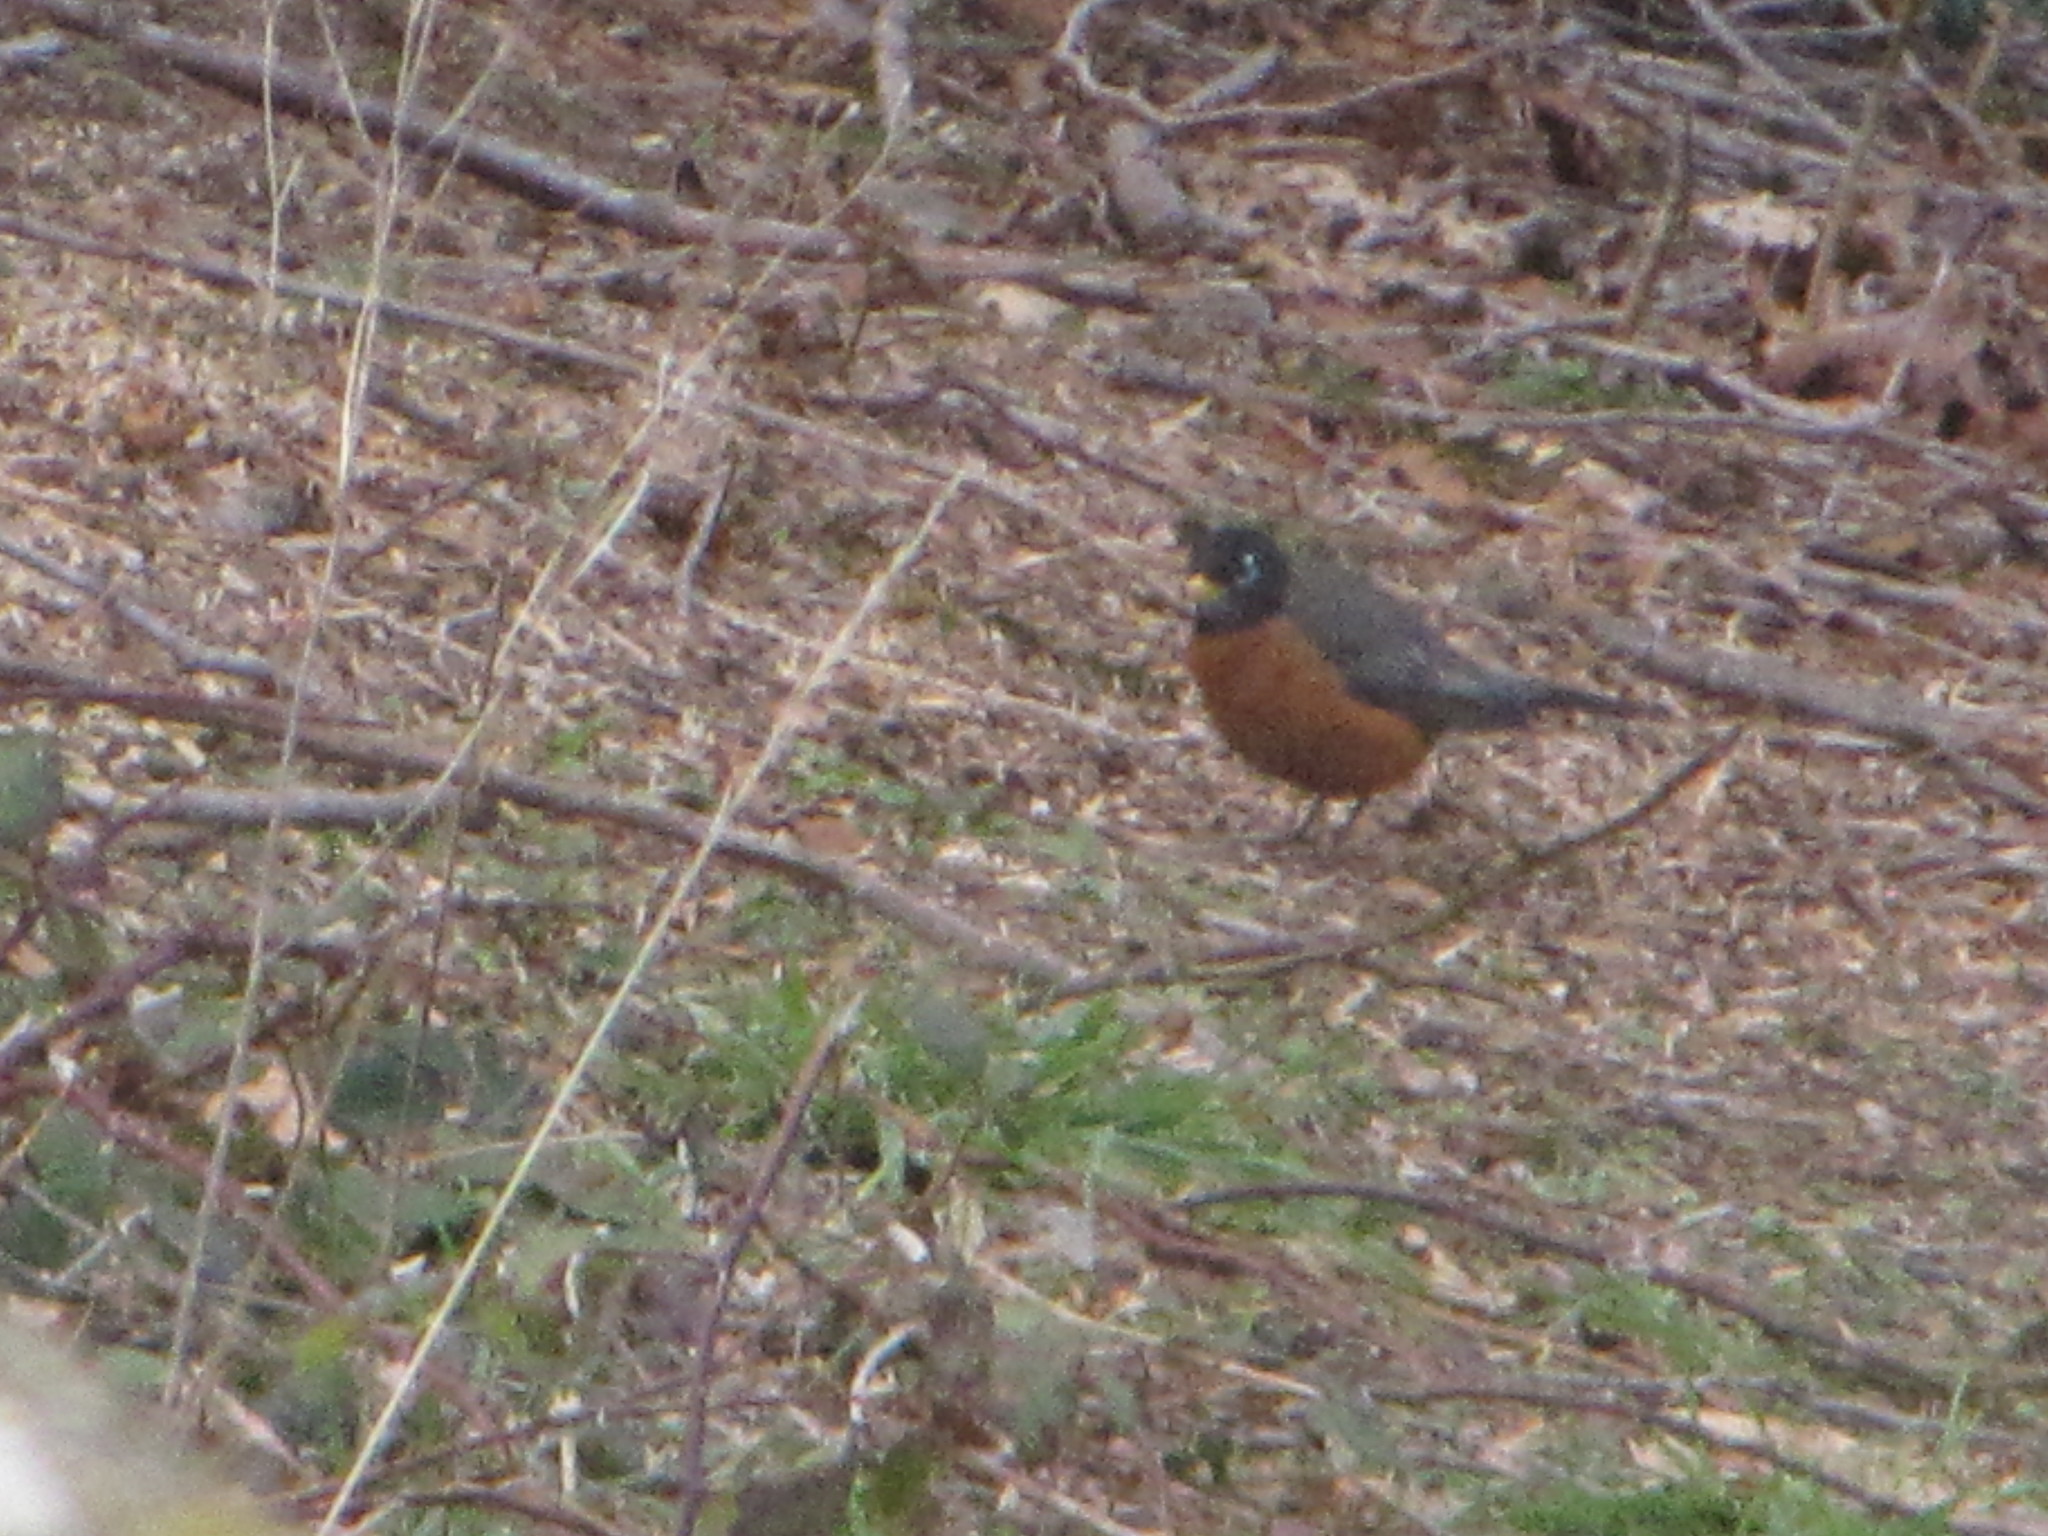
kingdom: Animalia
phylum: Chordata
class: Aves
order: Passeriformes
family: Turdidae
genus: Turdus
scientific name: Turdus migratorius
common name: American robin
